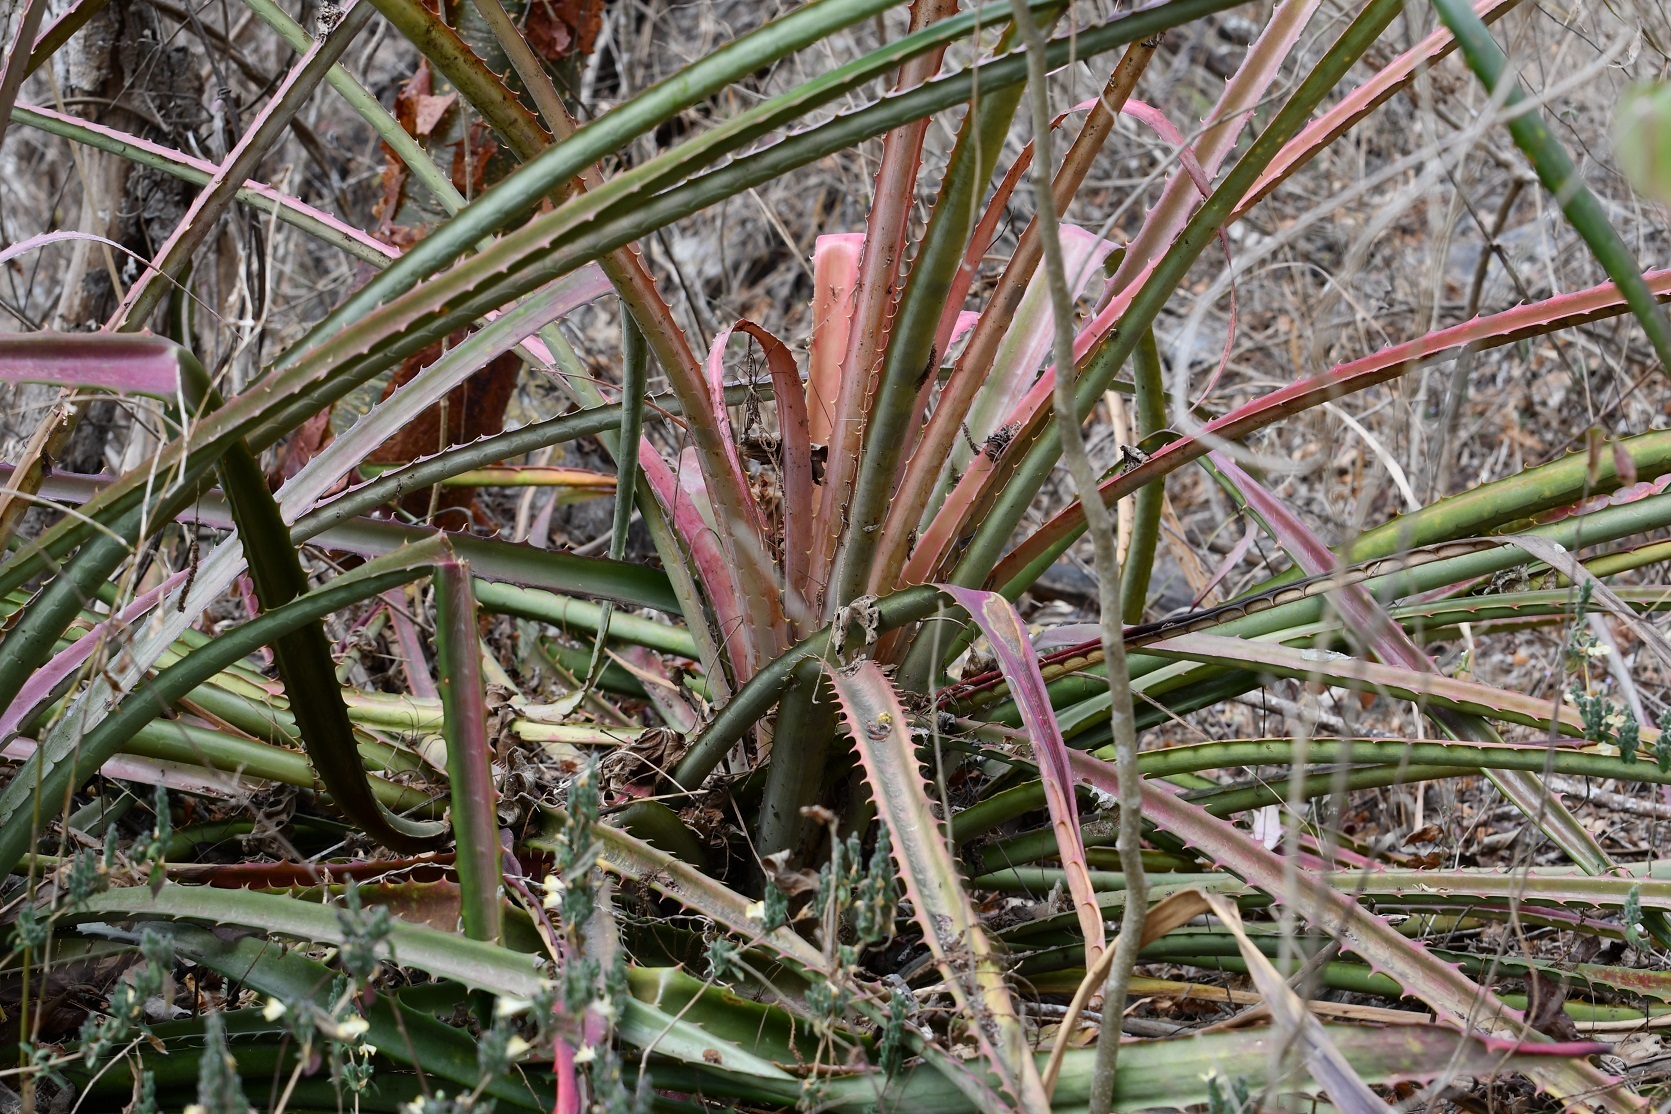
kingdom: Plantae
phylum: Tracheophyta
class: Liliopsida
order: Poales
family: Bromeliaceae
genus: Bromelia
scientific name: Bromelia karatas
